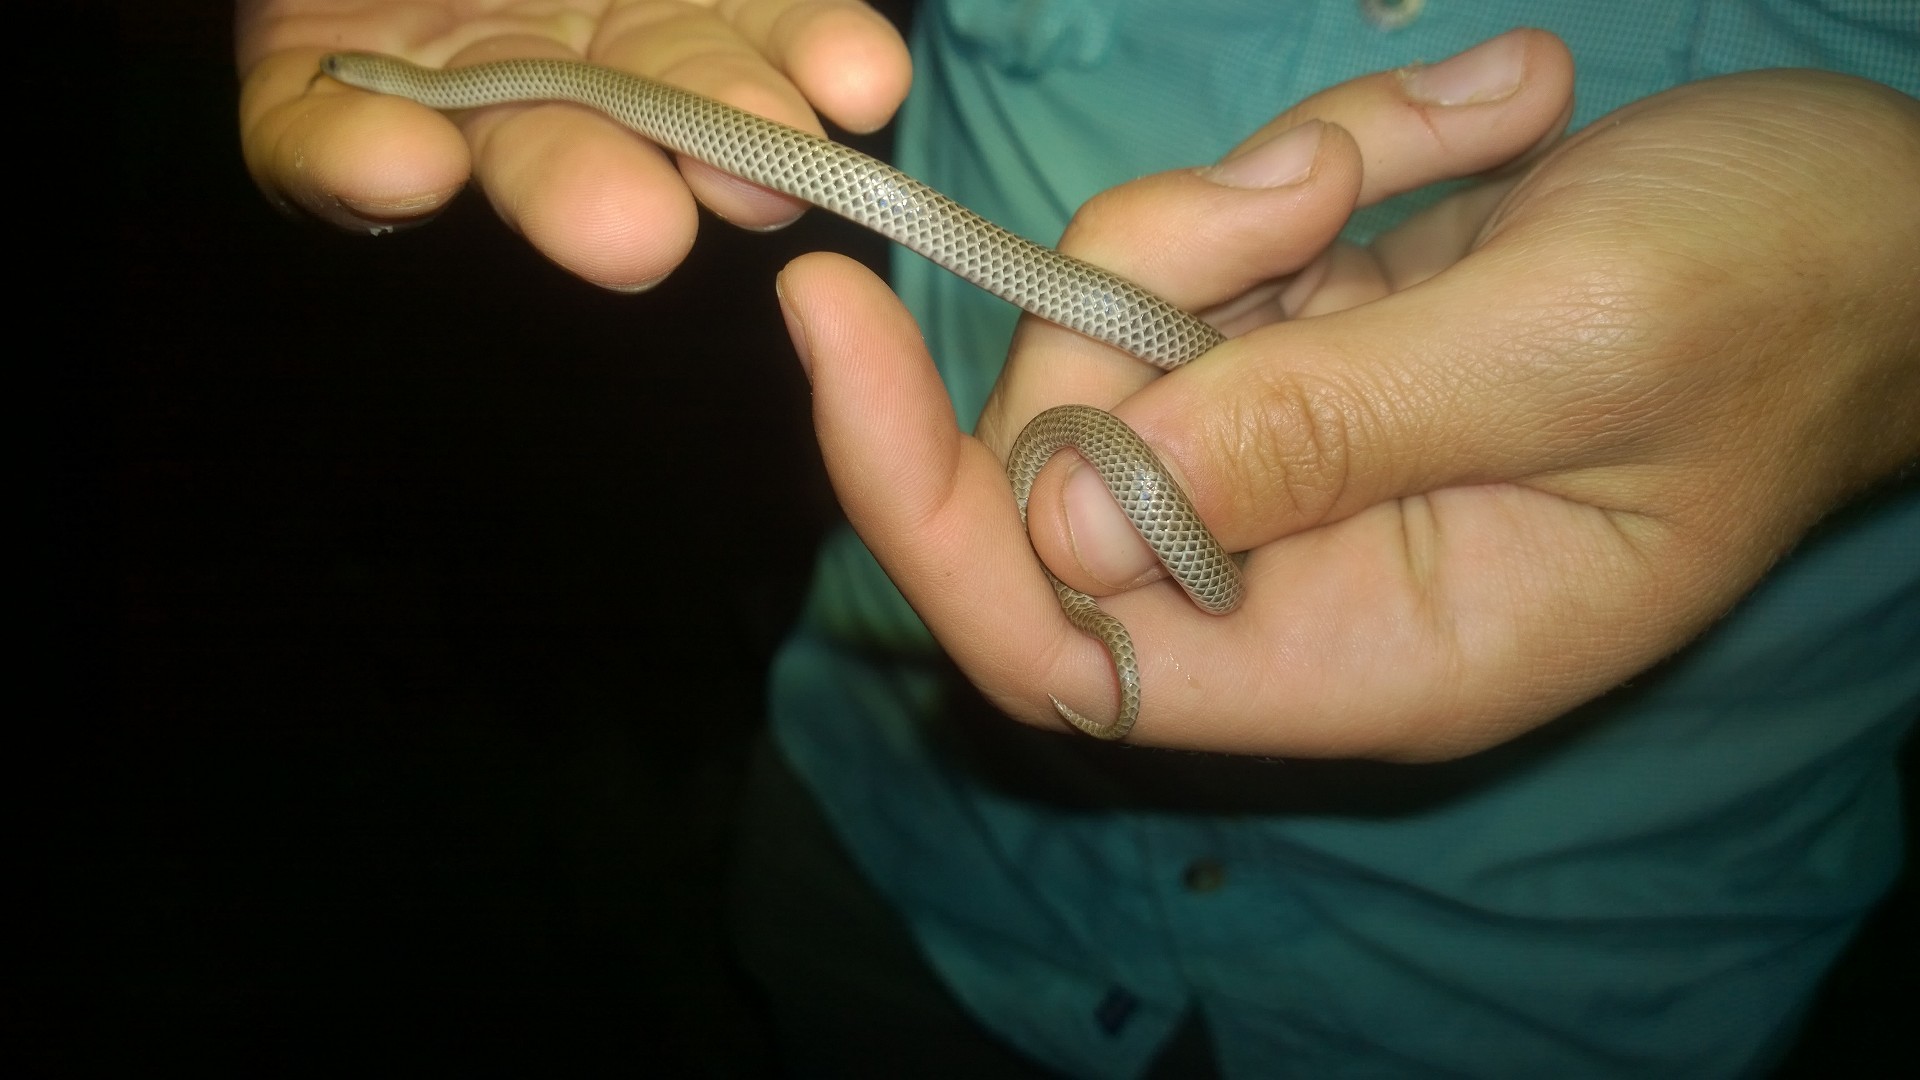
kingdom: Animalia
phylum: Chordata
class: Squamata
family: Colubridae
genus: Sonora
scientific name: Sonora episcopa
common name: Ground snake
